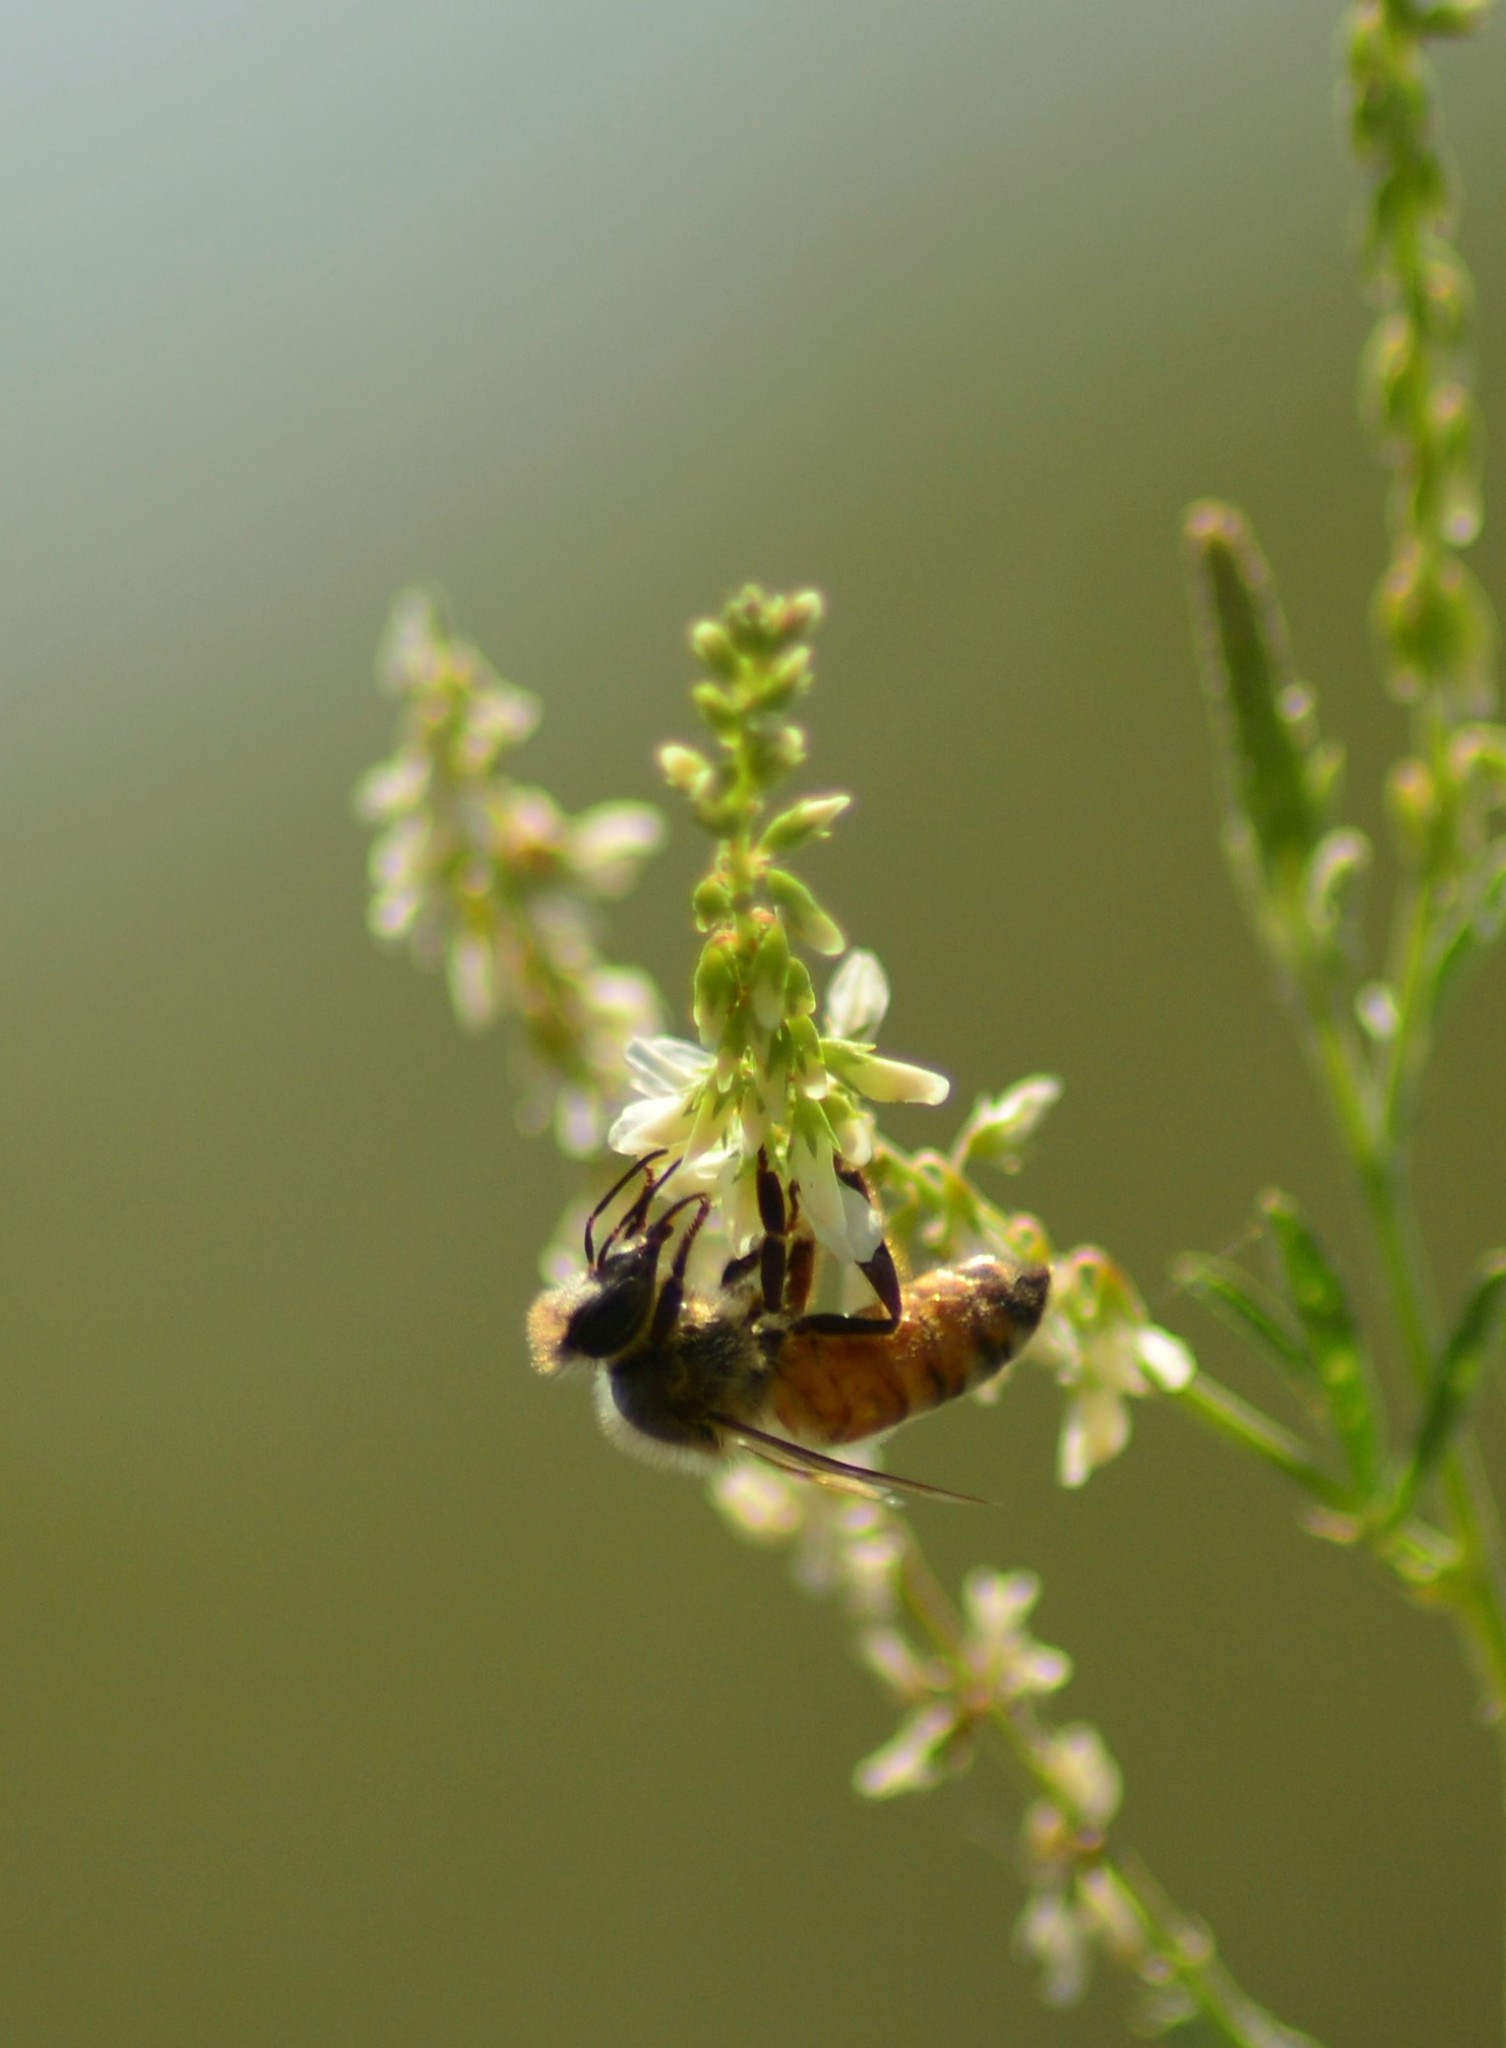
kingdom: Animalia
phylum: Arthropoda
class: Insecta
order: Hymenoptera
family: Apidae
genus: Apis
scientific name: Apis mellifera
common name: Honey bee
